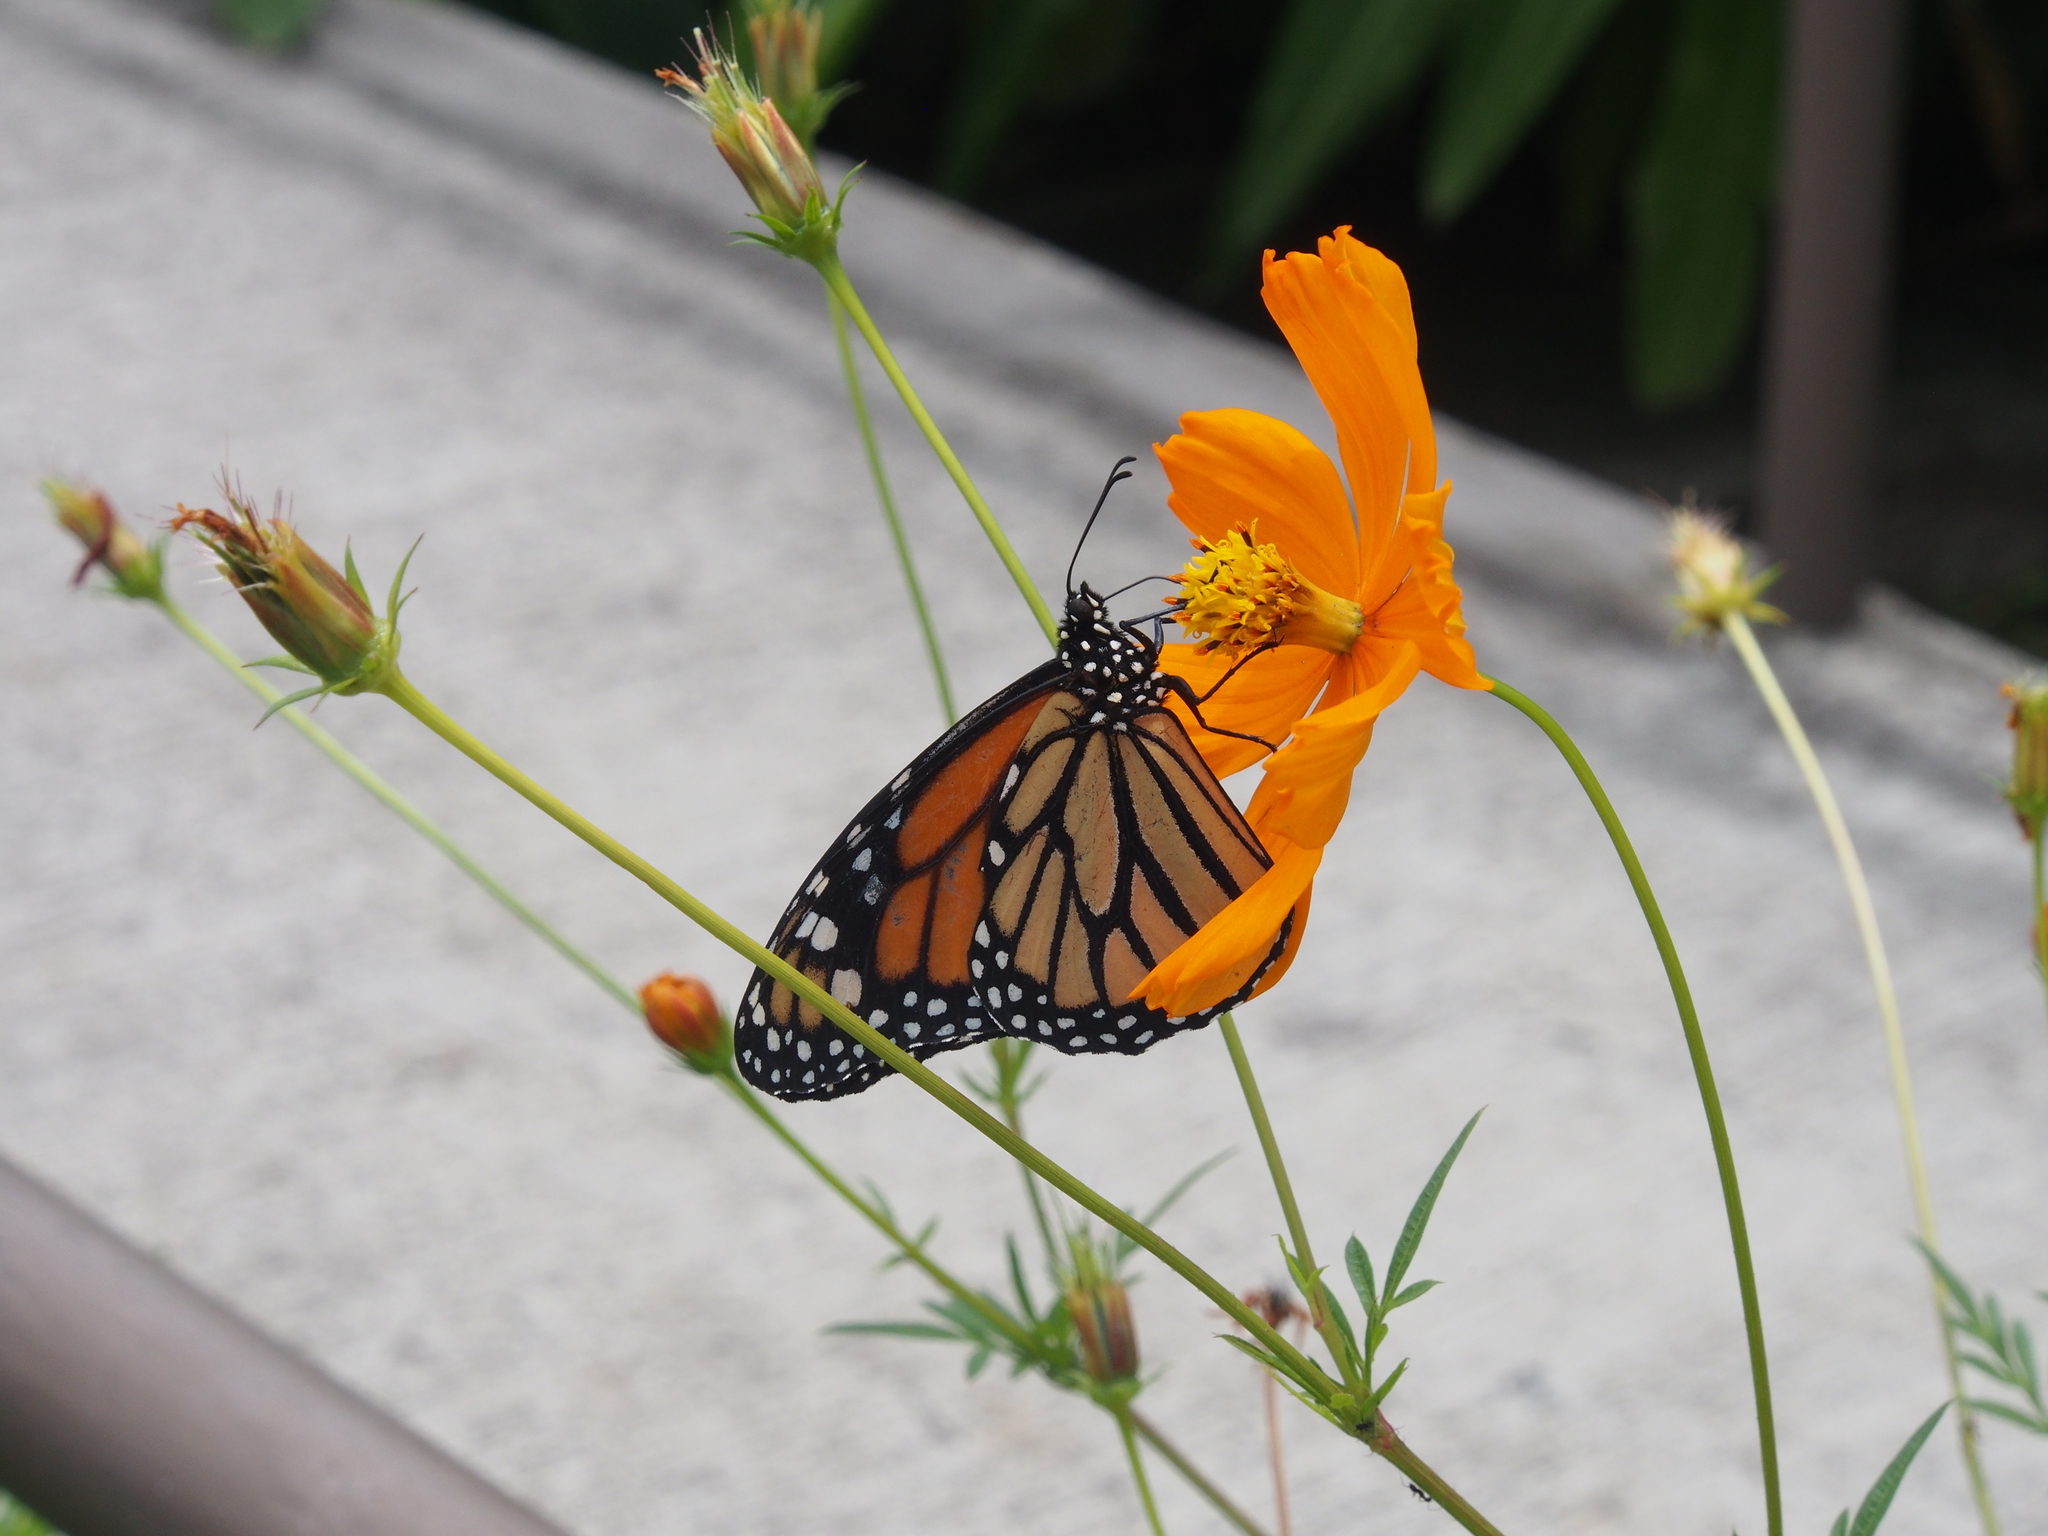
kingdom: Animalia
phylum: Arthropoda
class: Insecta
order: Lepidoptera
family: Nymphalidae
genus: Danaus
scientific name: Danaus plexippus
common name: Monarch
